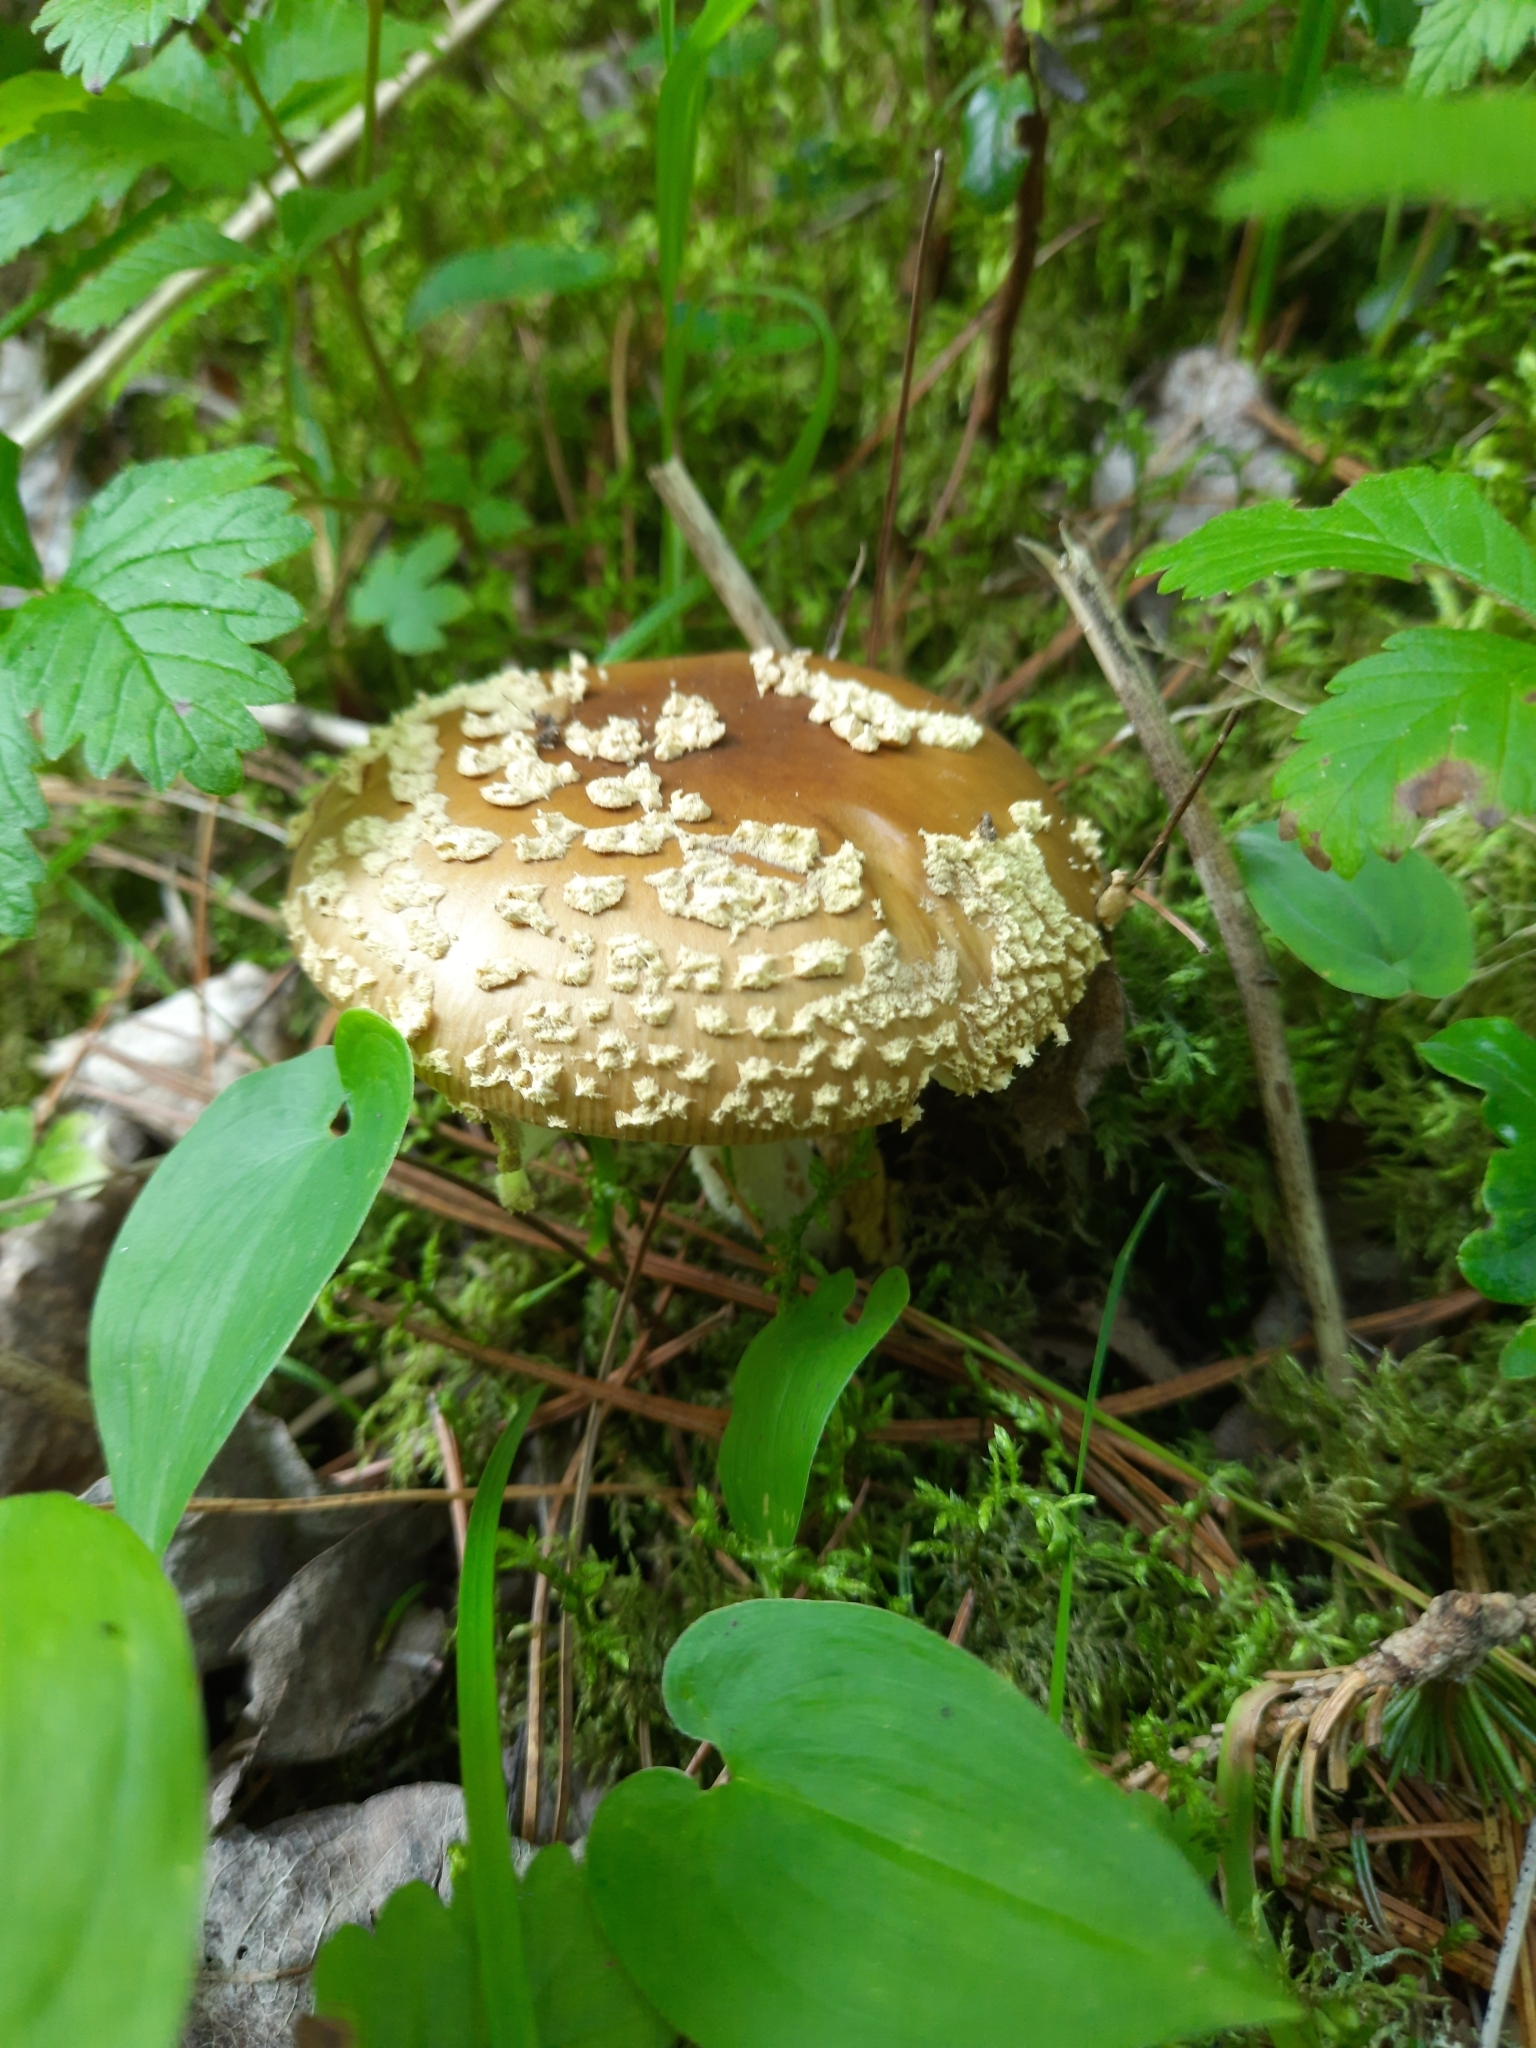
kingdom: Fungi
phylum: Basidiomycota
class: Agaricomycetes
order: Agaricales
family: Amanitaceae
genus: Amanita
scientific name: Amanita regalis
